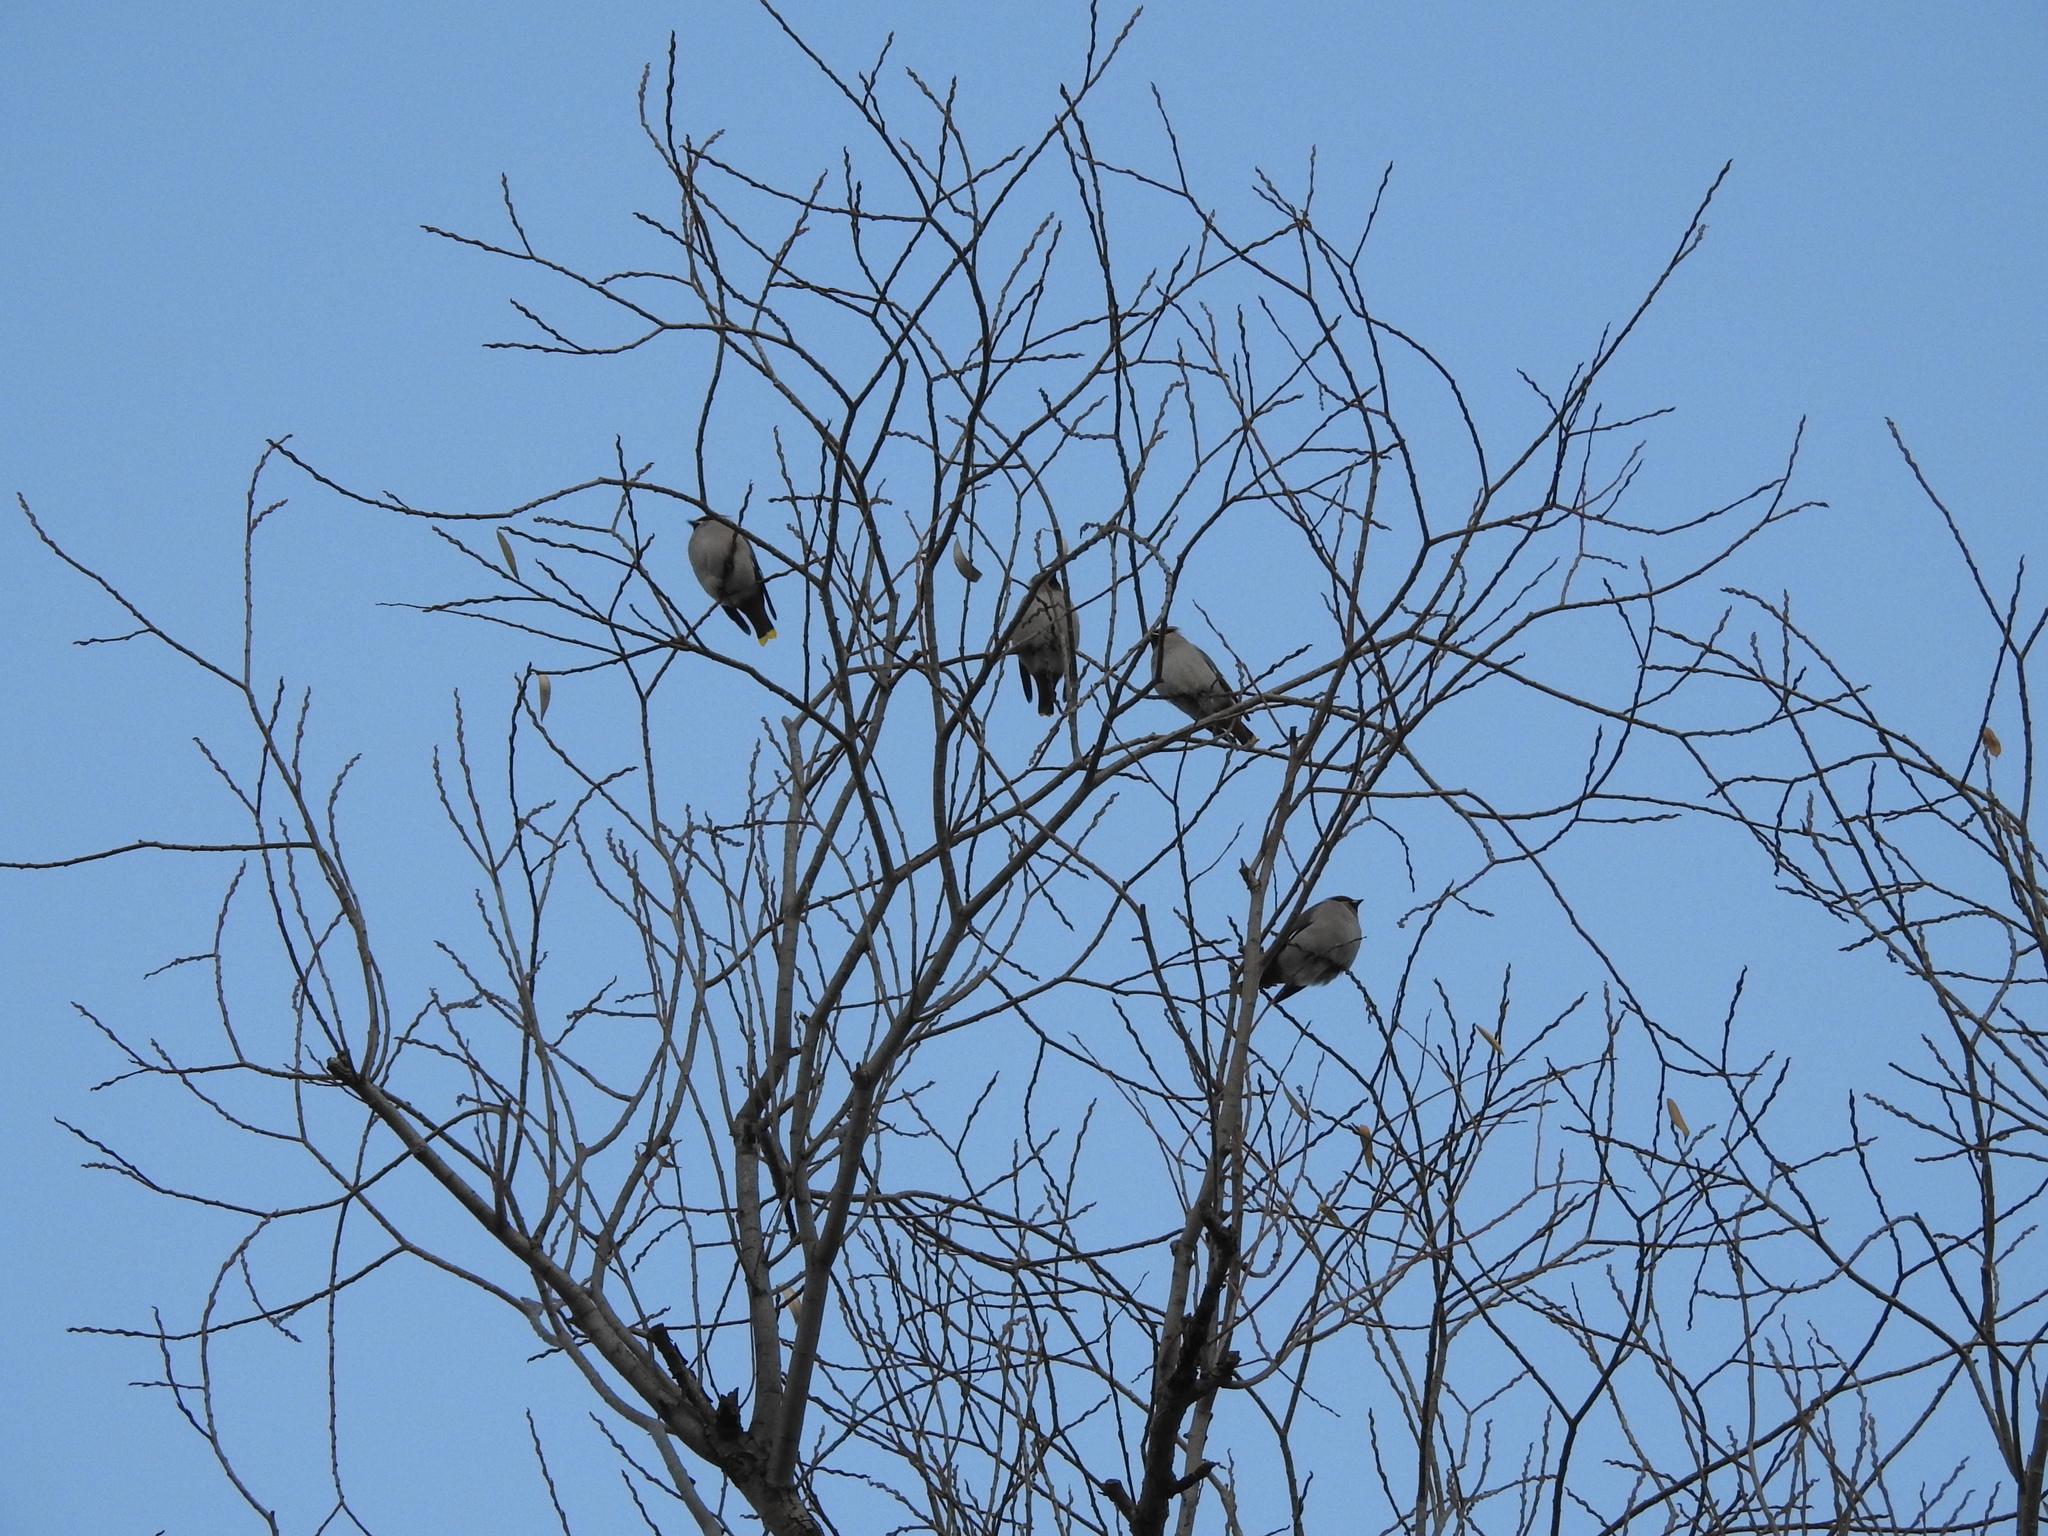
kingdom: Animalia
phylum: Chordata
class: Aves
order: Passeriformes
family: Bombycillidae
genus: Bombycilla
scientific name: Bombycilla garrulus
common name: Bohemian waxwing
